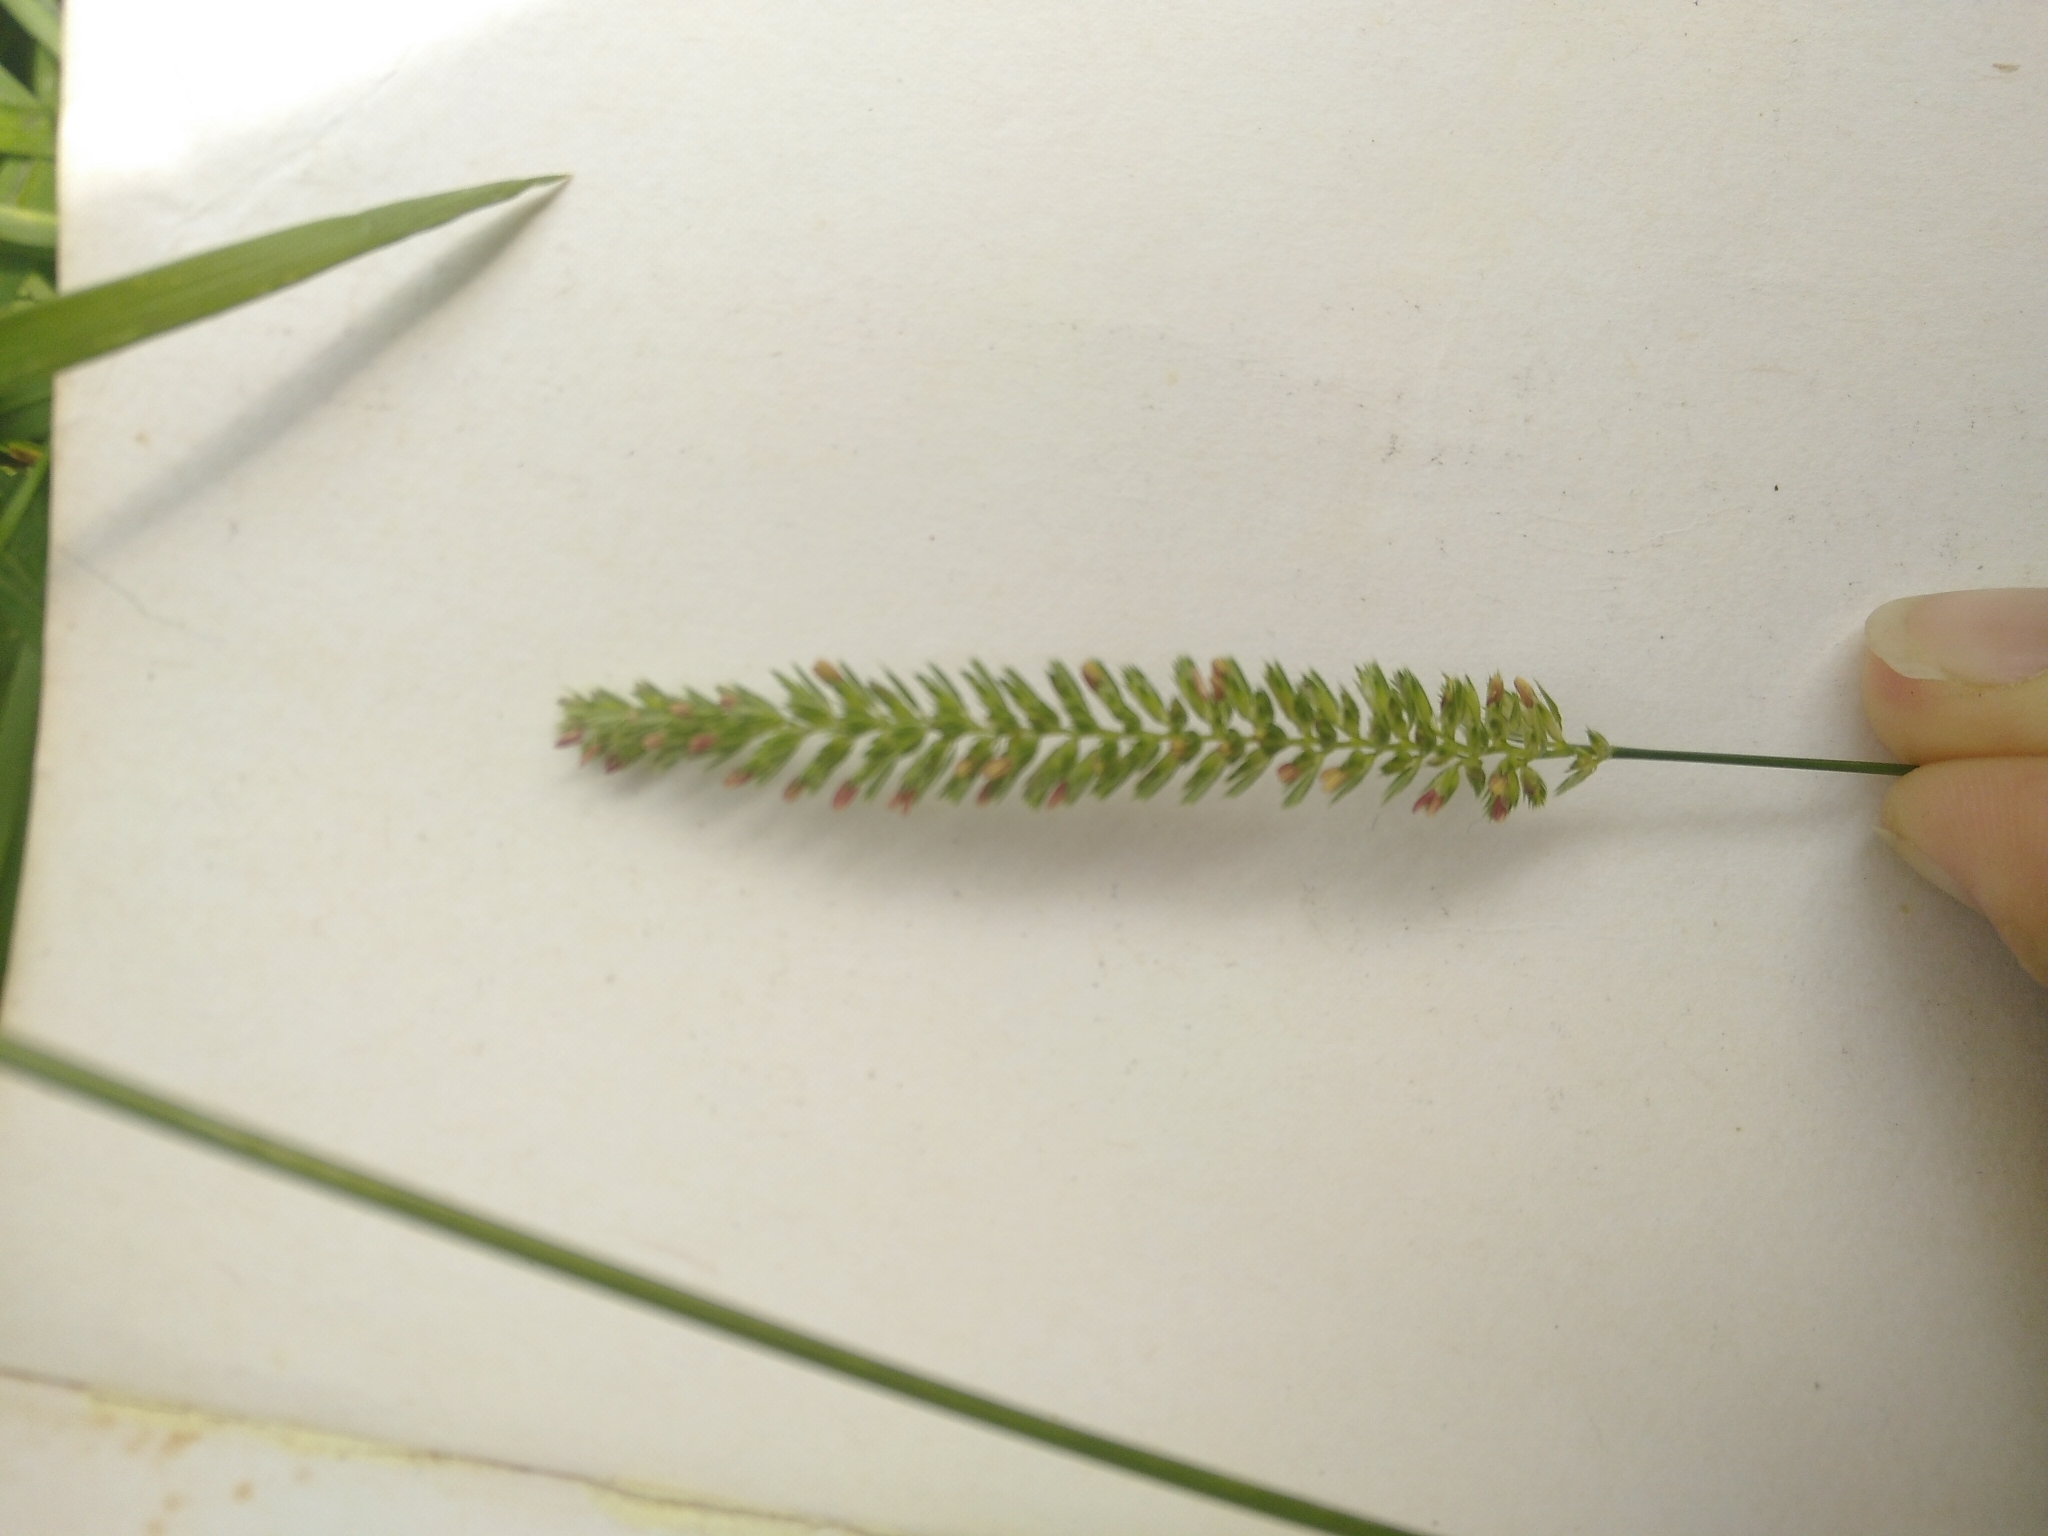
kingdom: Plantae
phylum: Tracheophyta
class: Liliopsida
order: Poales
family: Poaceae
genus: Cynosurus
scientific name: Cynosurus cristatus
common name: Crested dog's-tail
